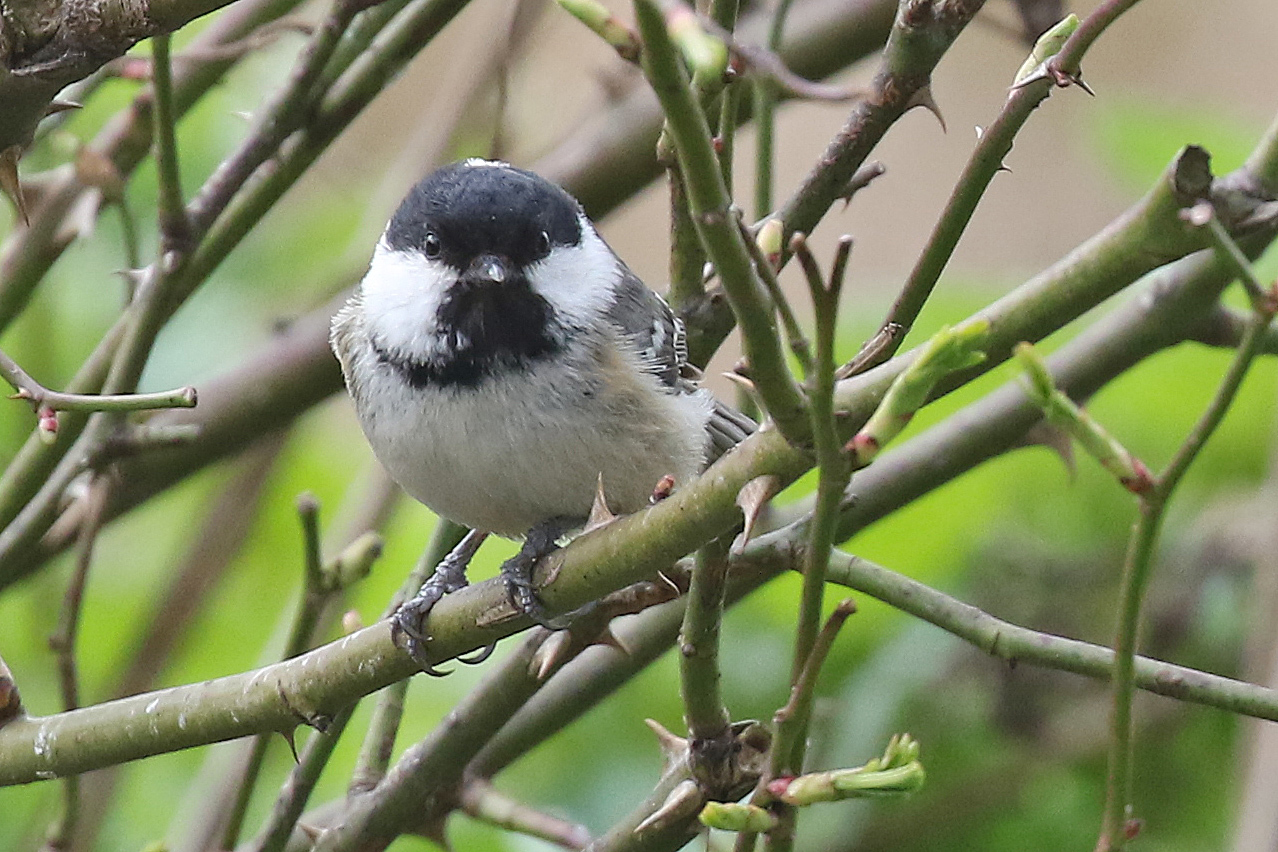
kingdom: Animalia
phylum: Chordata
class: Aves
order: Passeriformes
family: Paridae
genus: Periparus
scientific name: Periparus ater
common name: Coal tit
